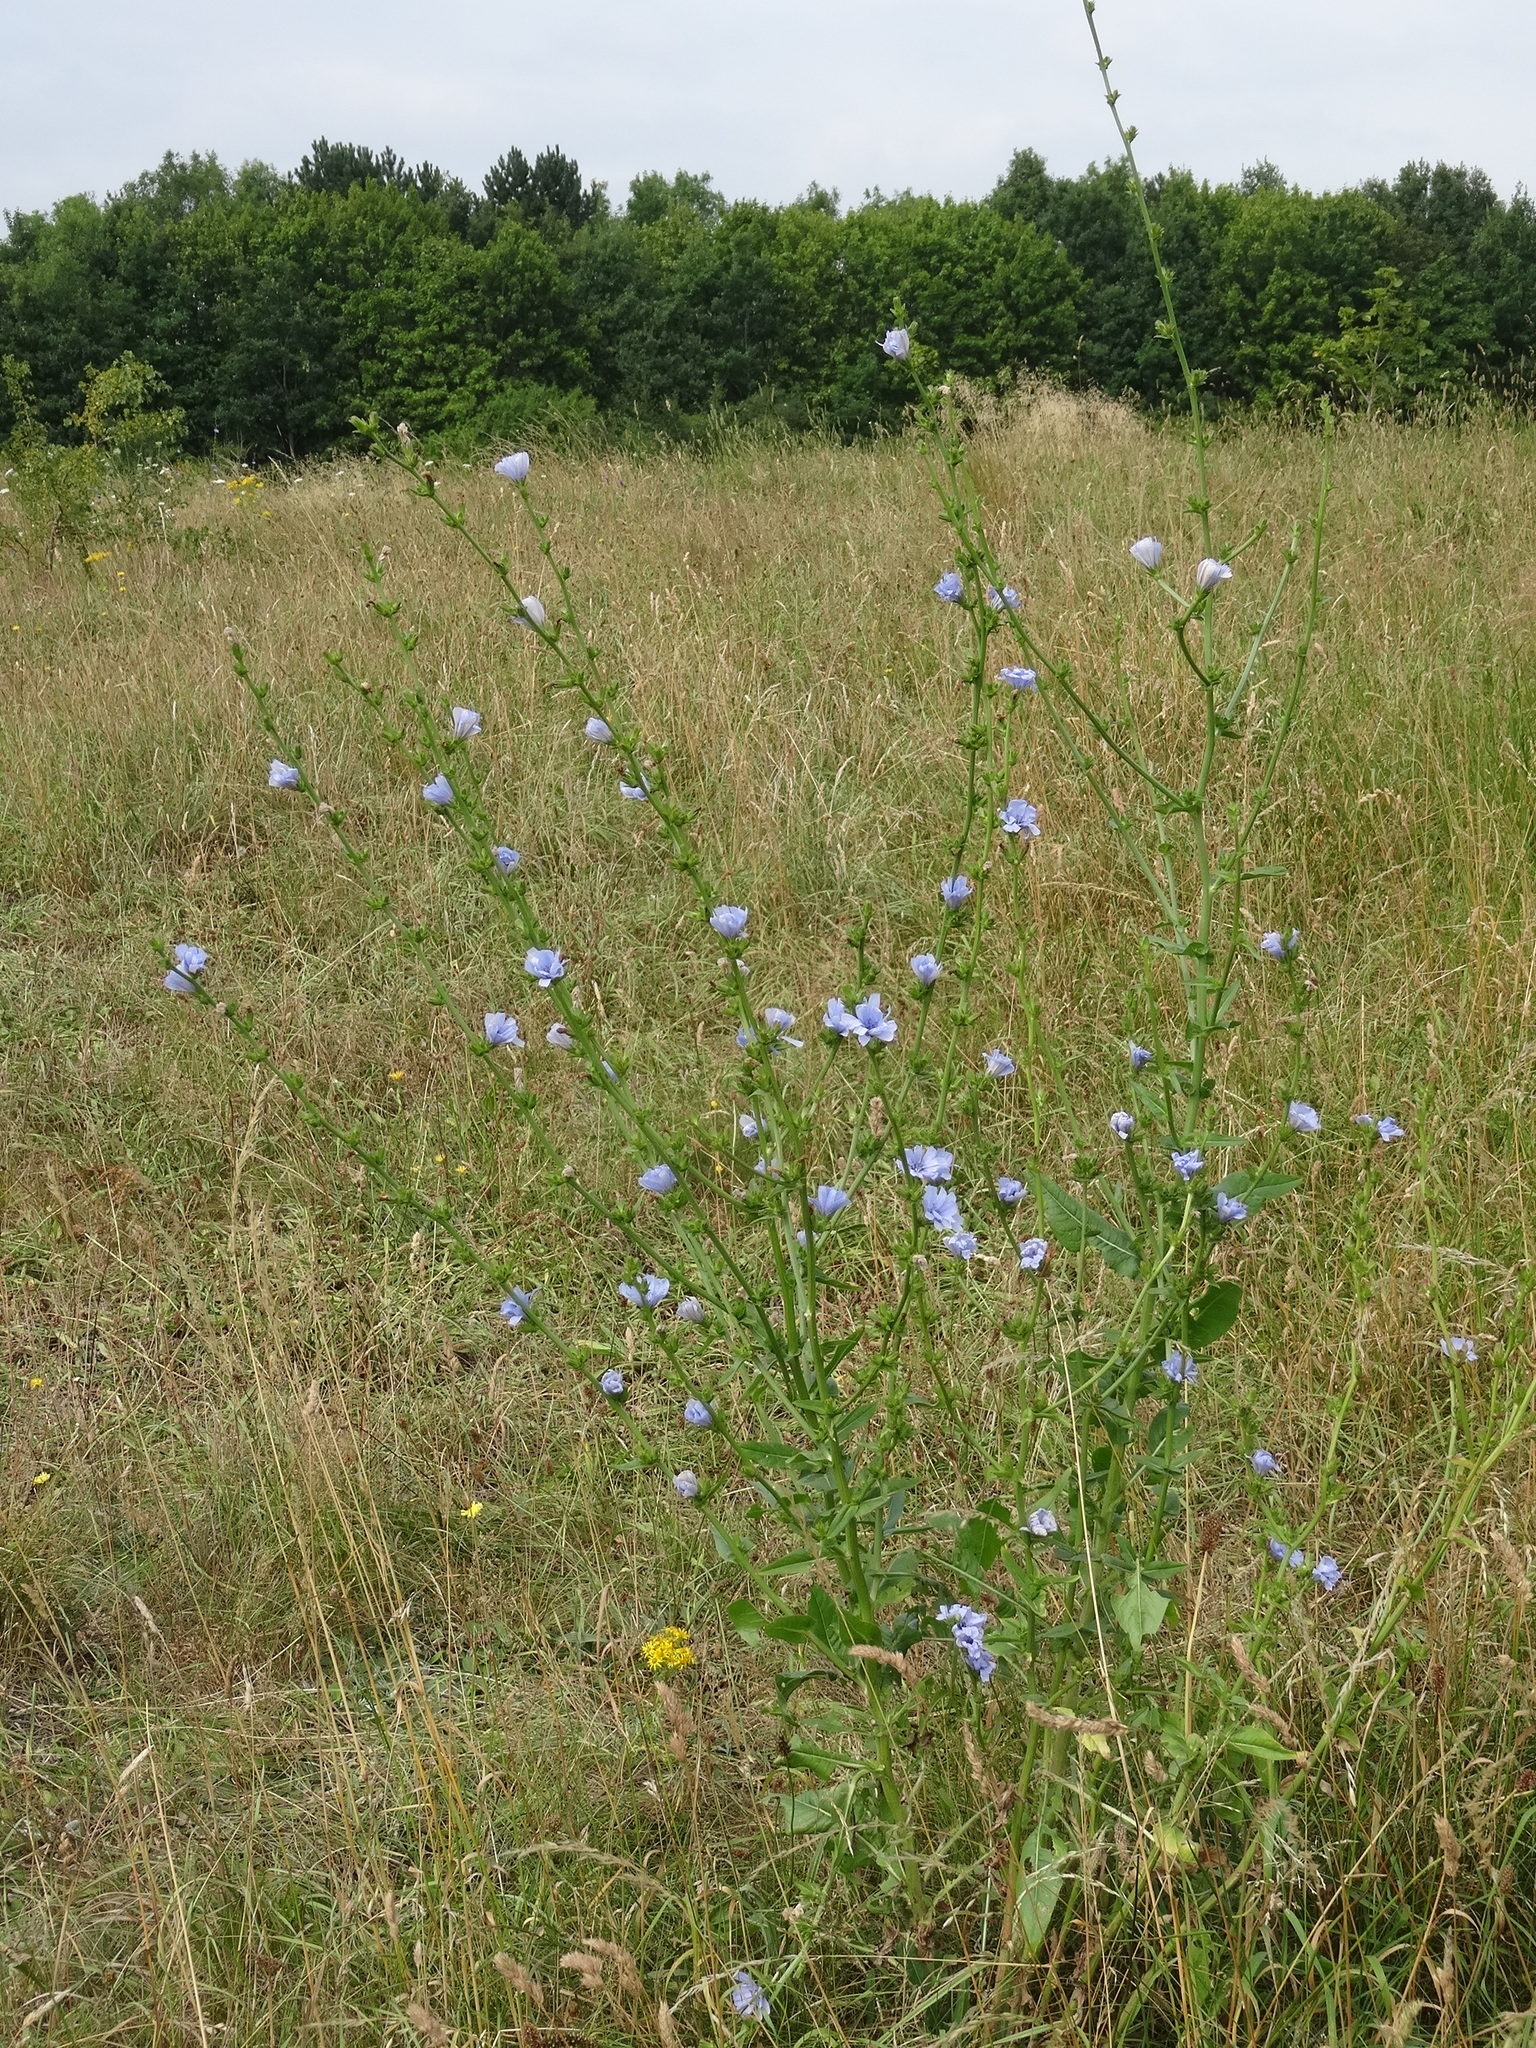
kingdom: Plantae
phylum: Tracheophyta
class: Magnoliopsida
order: Asterales
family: Asteraceae
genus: Cichorium
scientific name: Cichorium intybus
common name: Chicory
